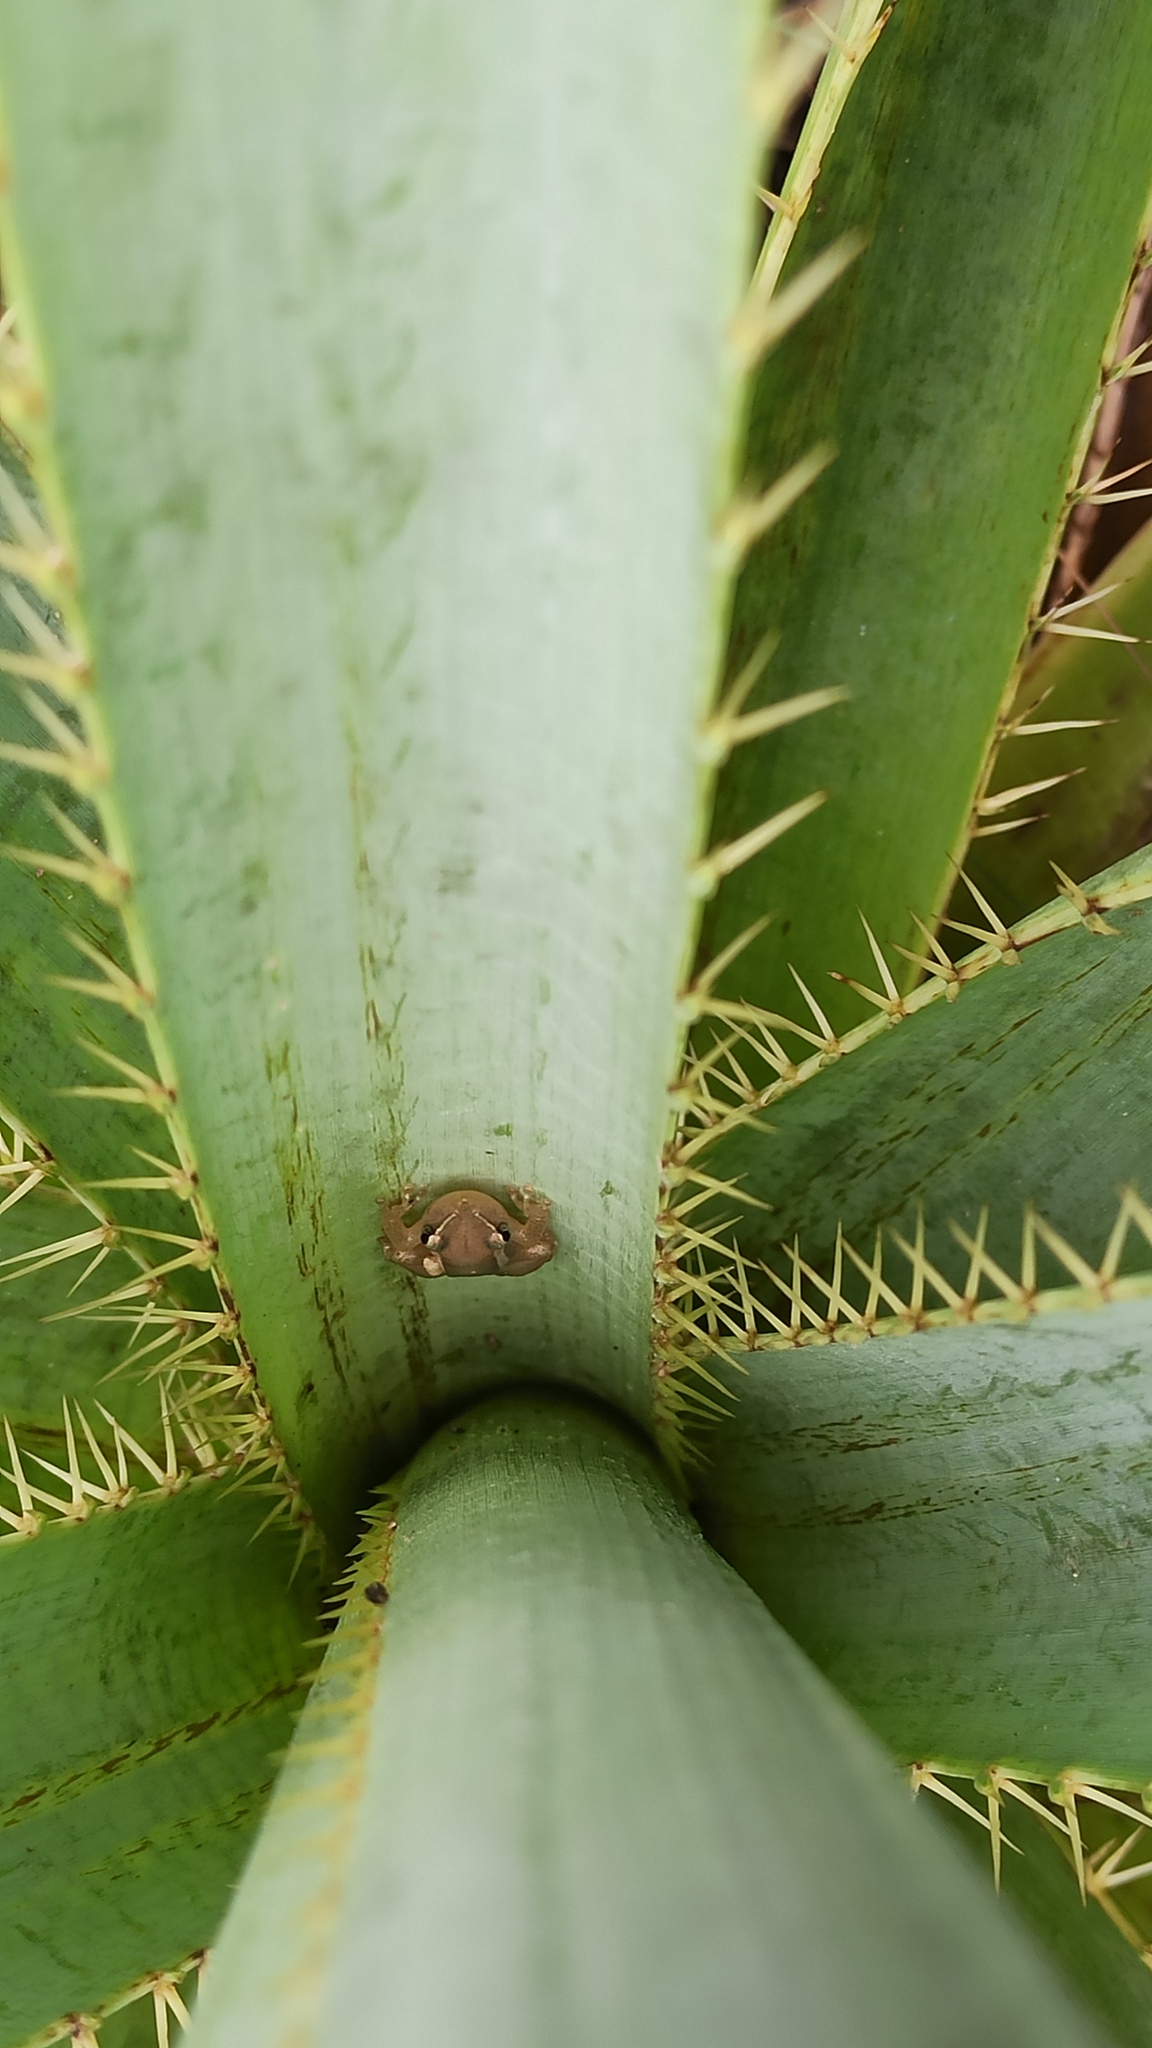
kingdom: Animalia
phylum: Chordata
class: Amphibia
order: Anura
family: Hylidae
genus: Scinax
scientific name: Scinax squalirostris
